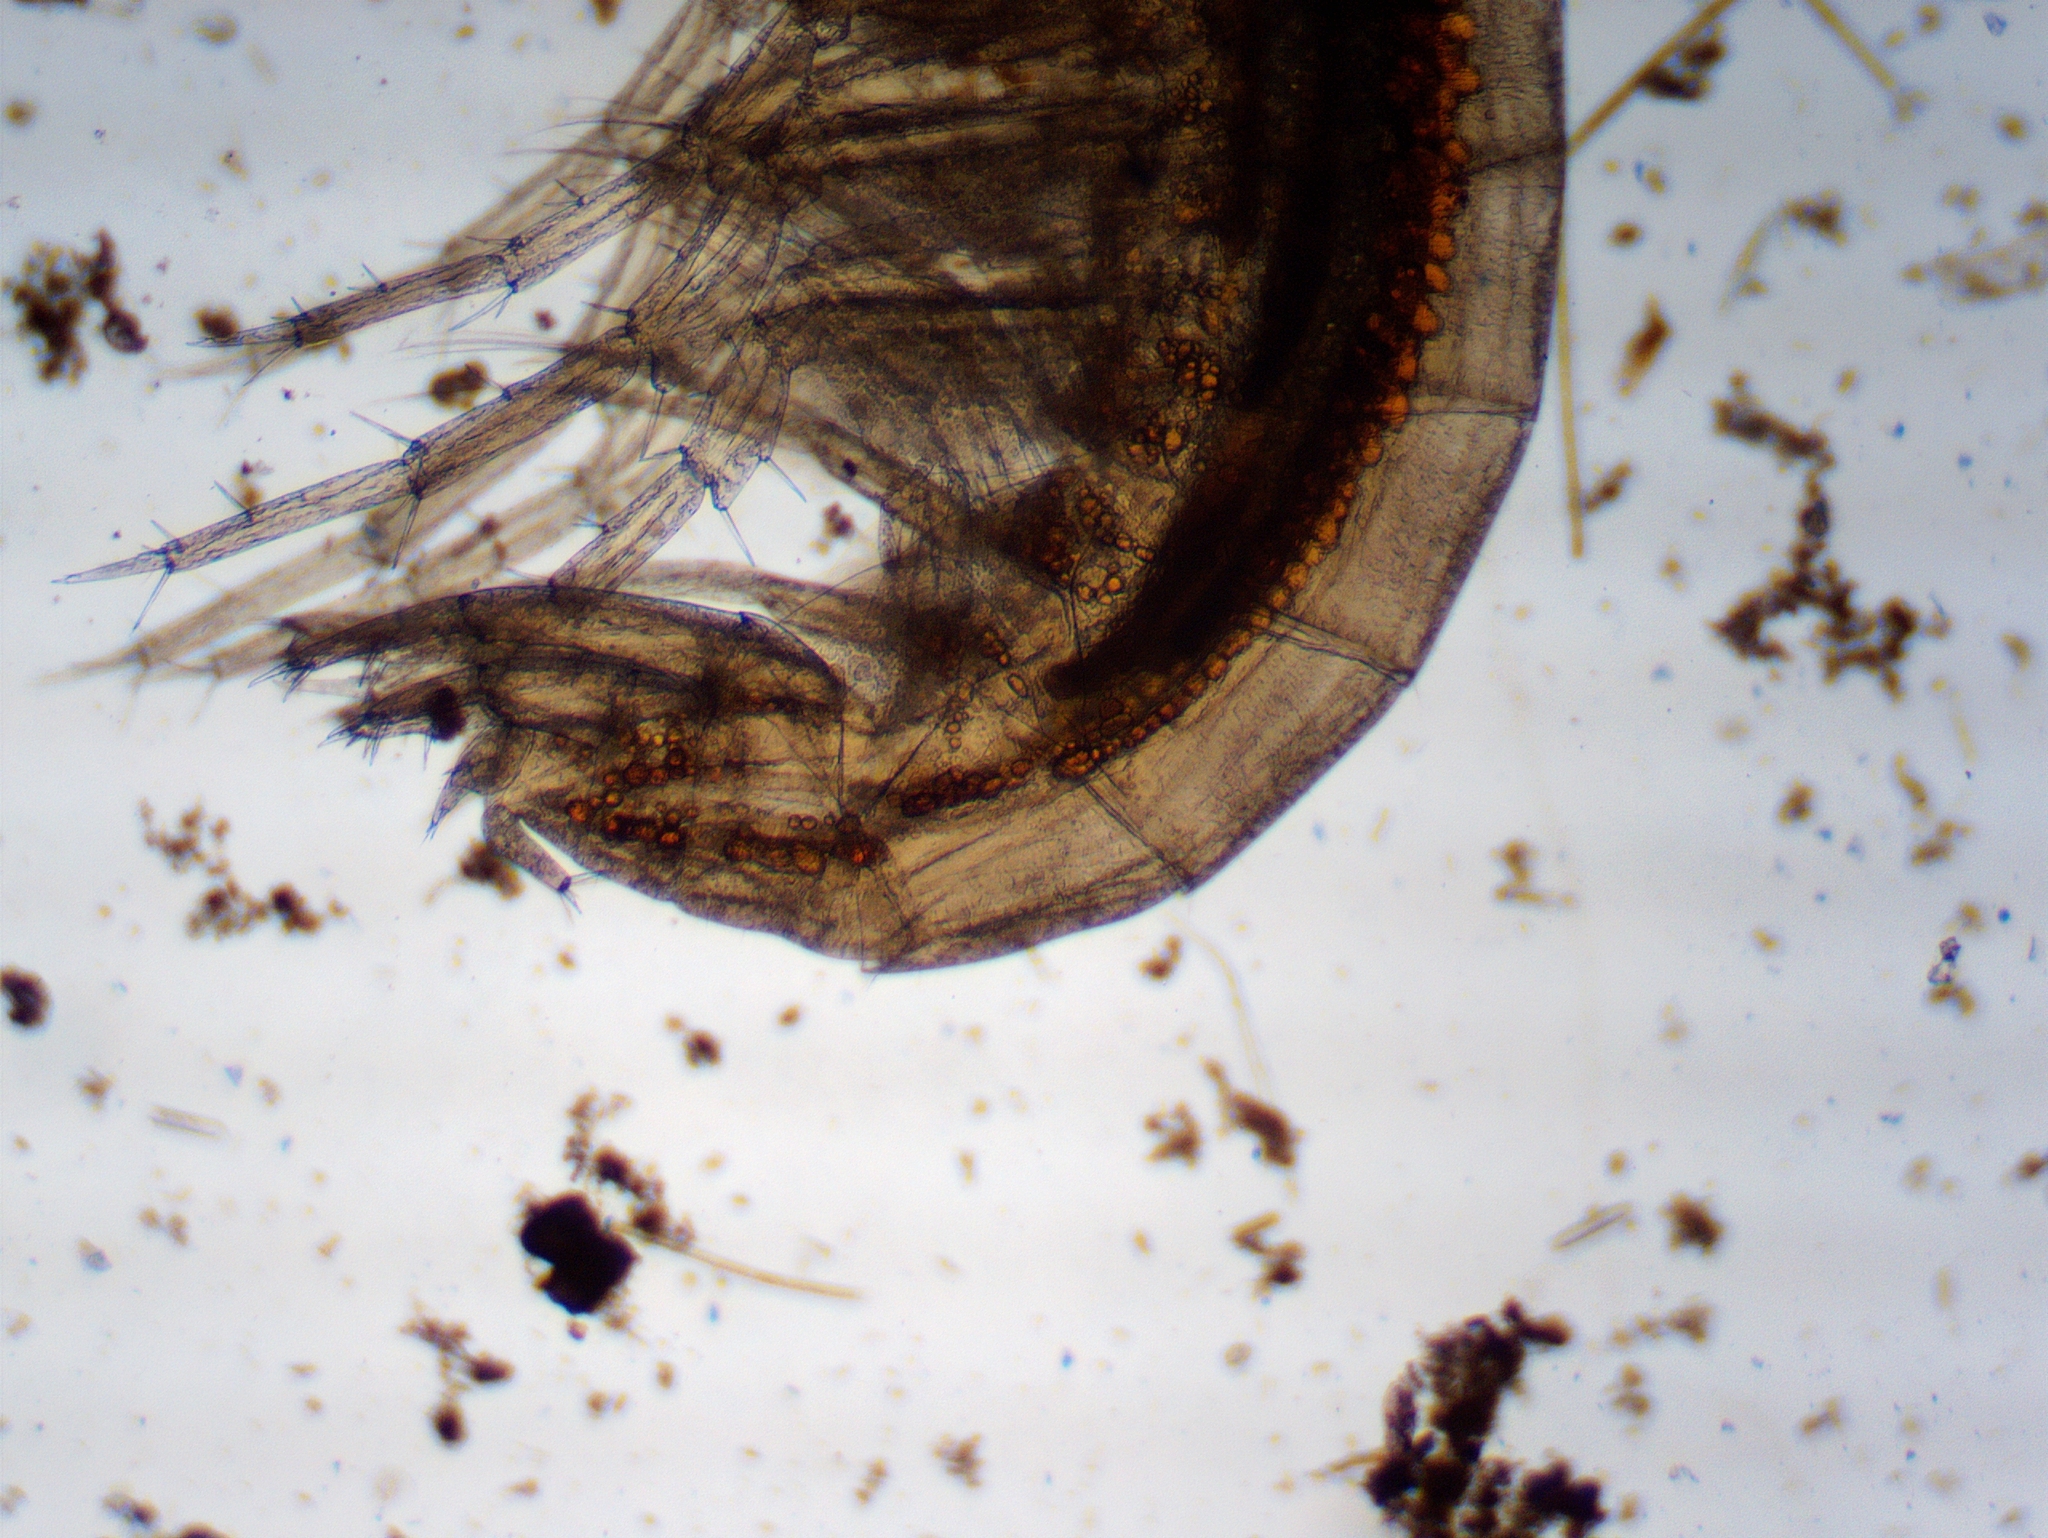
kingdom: Animalia
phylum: Arthropoda
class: Malacostraca
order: Amphipoda
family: Crangonyctidae
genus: Sicifera
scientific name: Sicifera chamberlaini
